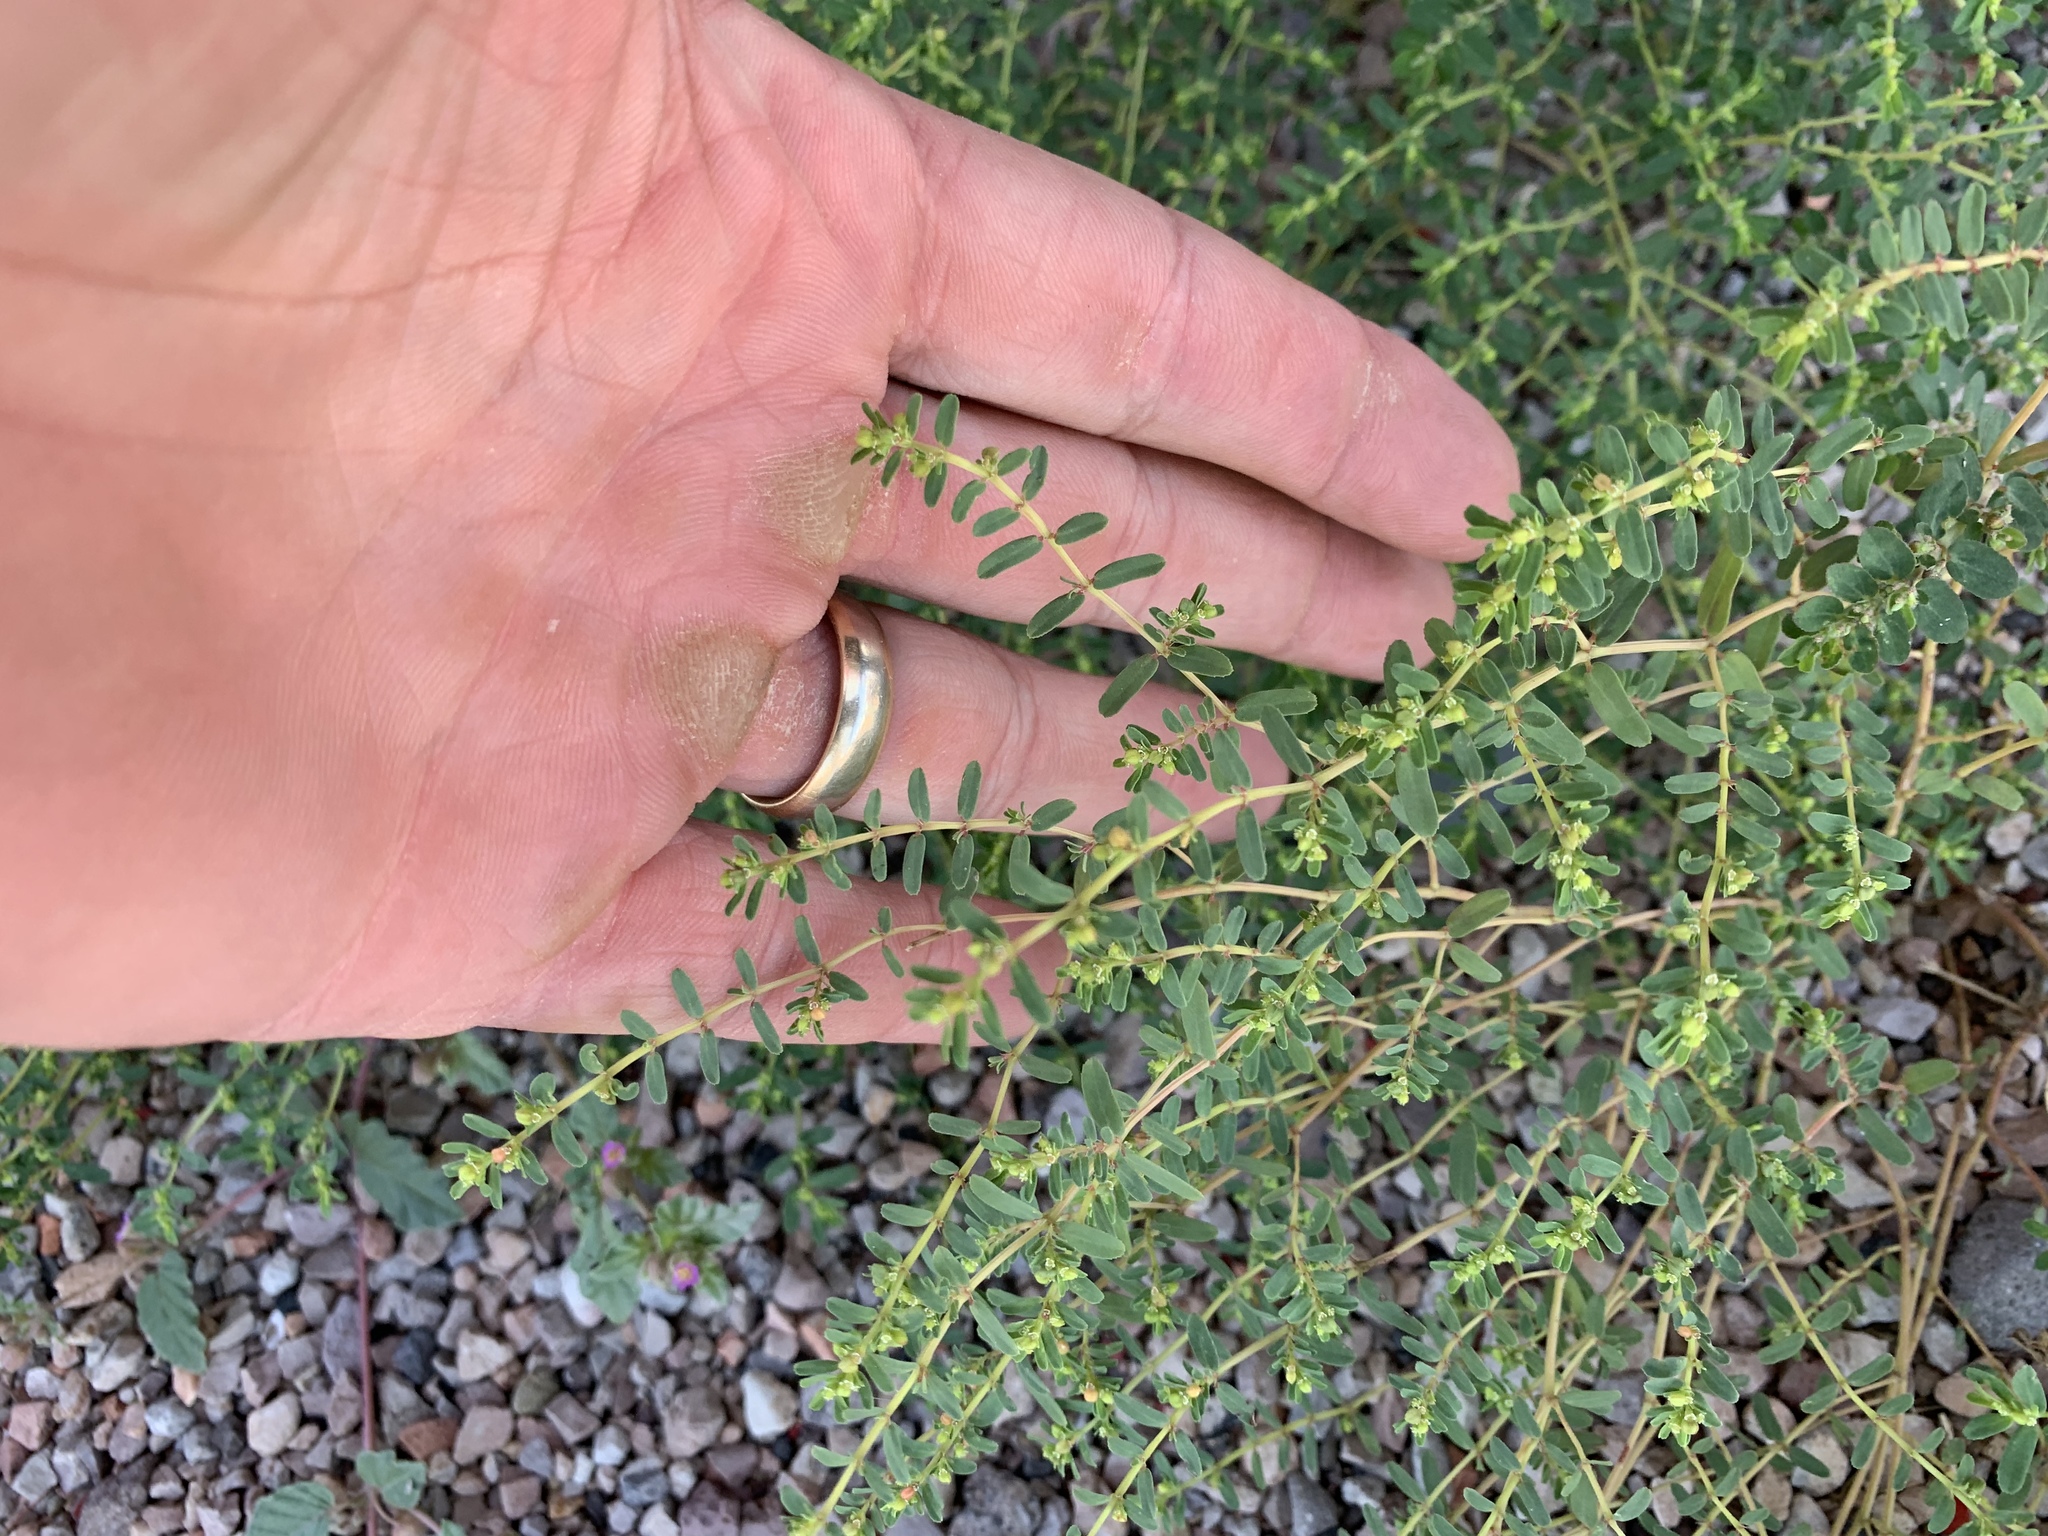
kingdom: Plantae
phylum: Tracheophyta
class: Magnoliopsida
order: Malpighiales
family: Euphorbiaceae
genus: Euphorbia
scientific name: Euphorbia serpillifolia
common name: Thyme-leaf spurge
